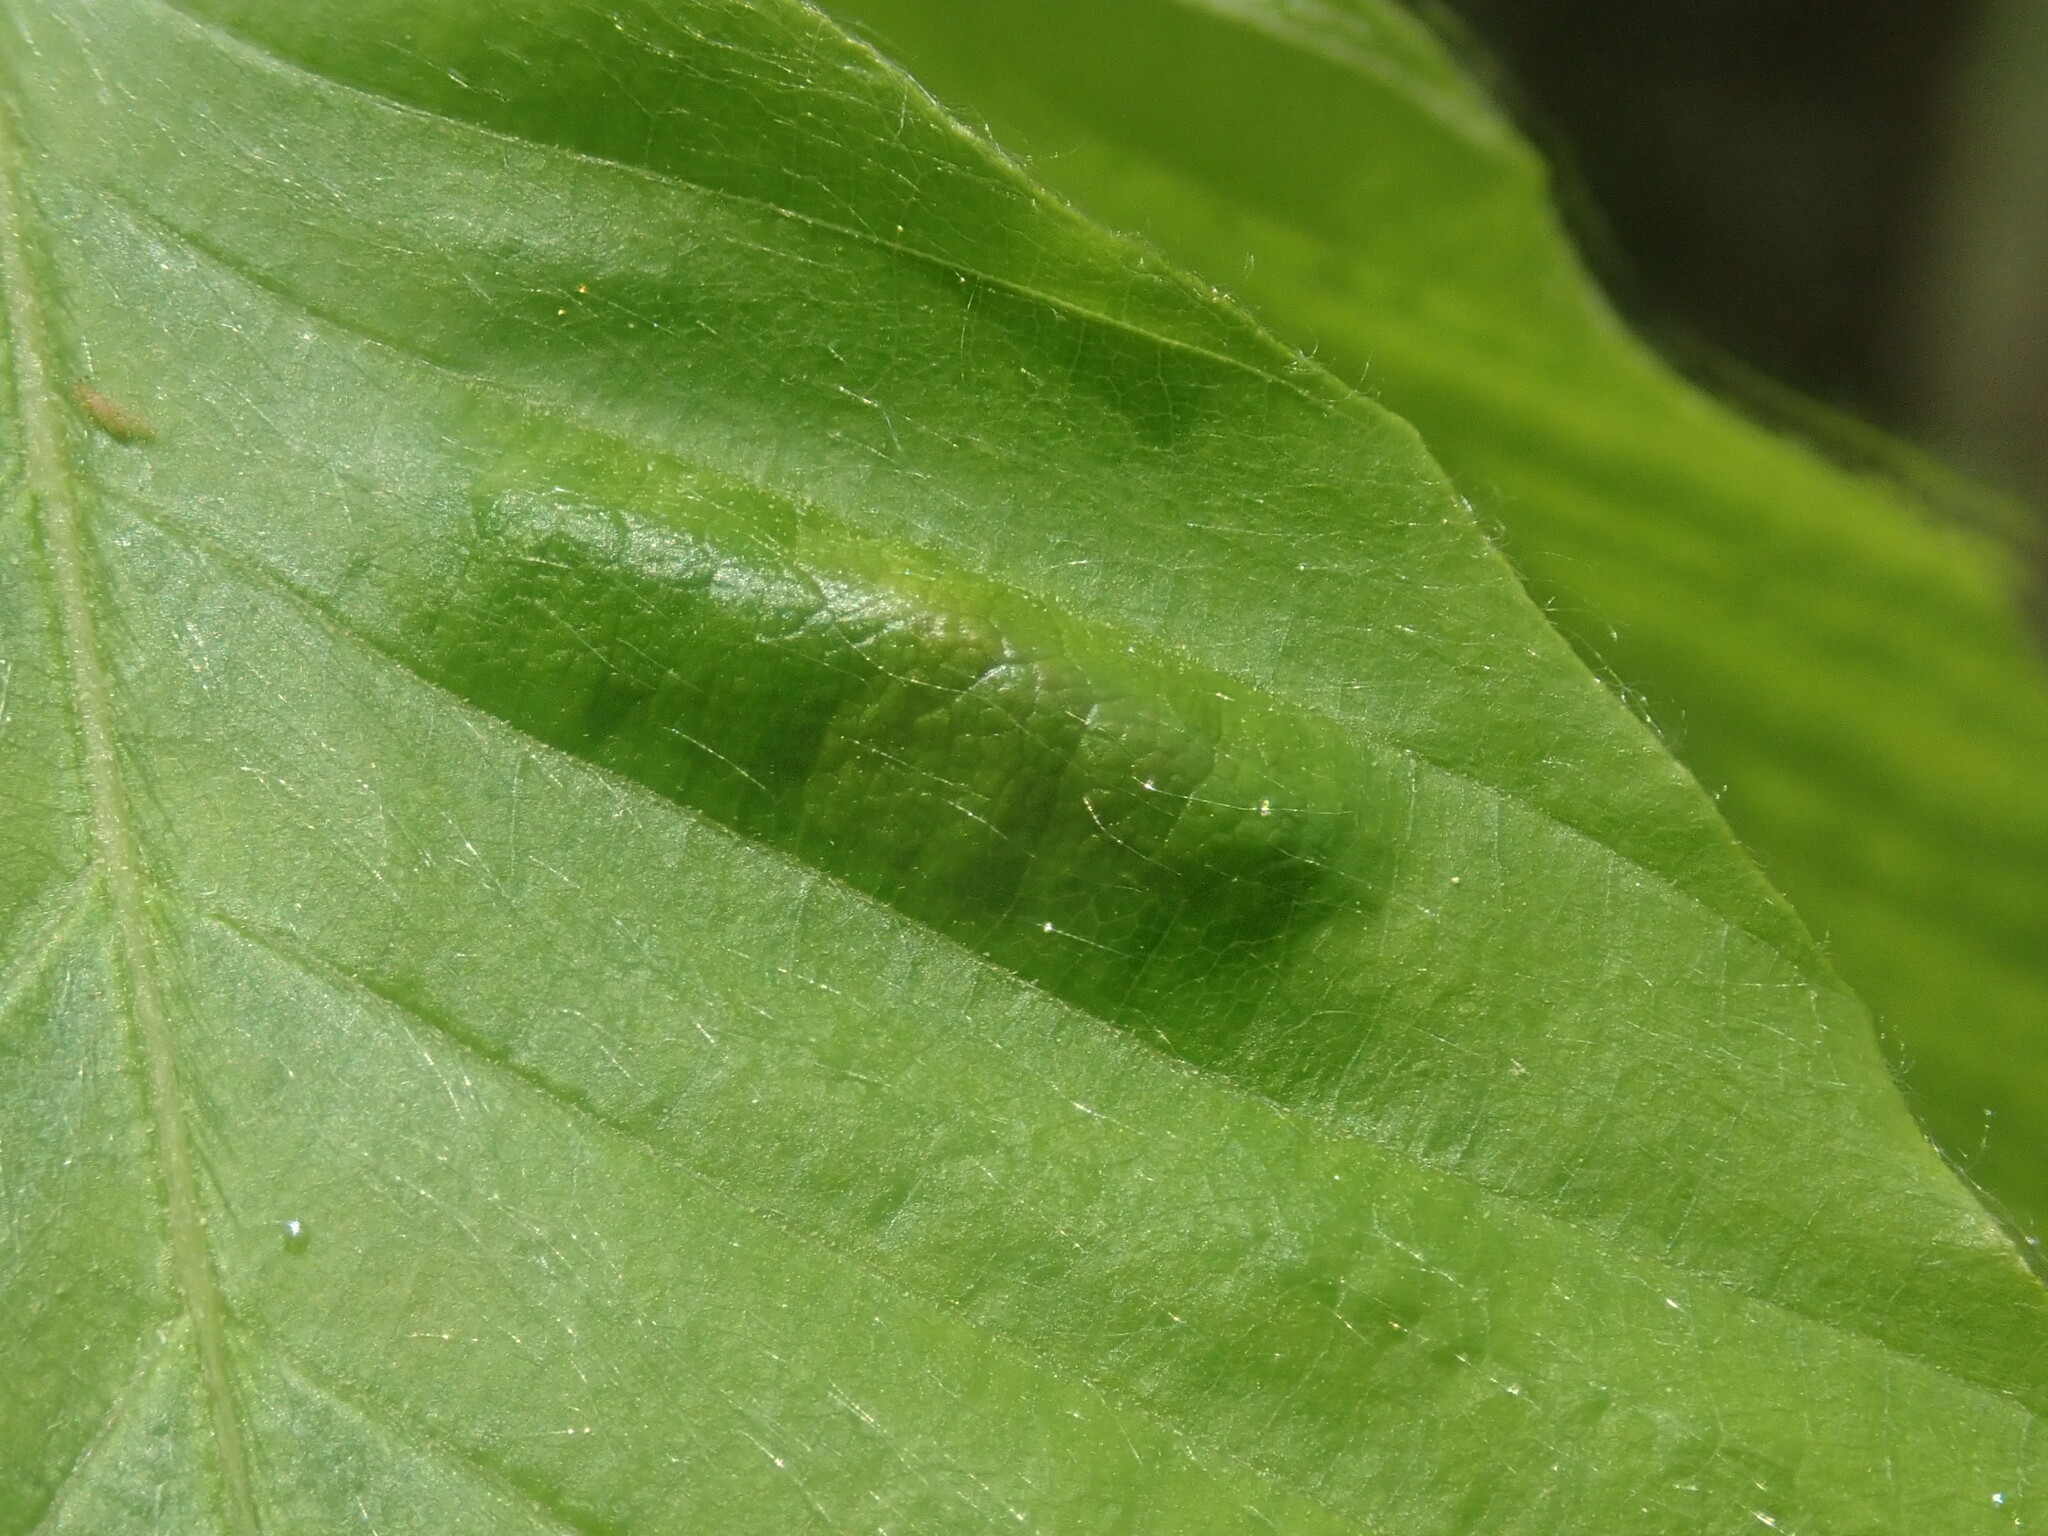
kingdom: Animalia
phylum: Nematoda
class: Chromadorea
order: Rhabditida
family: Anguinidae
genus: Litylenchus
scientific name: Litylenchus crenatae
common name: Beech leaf disease
